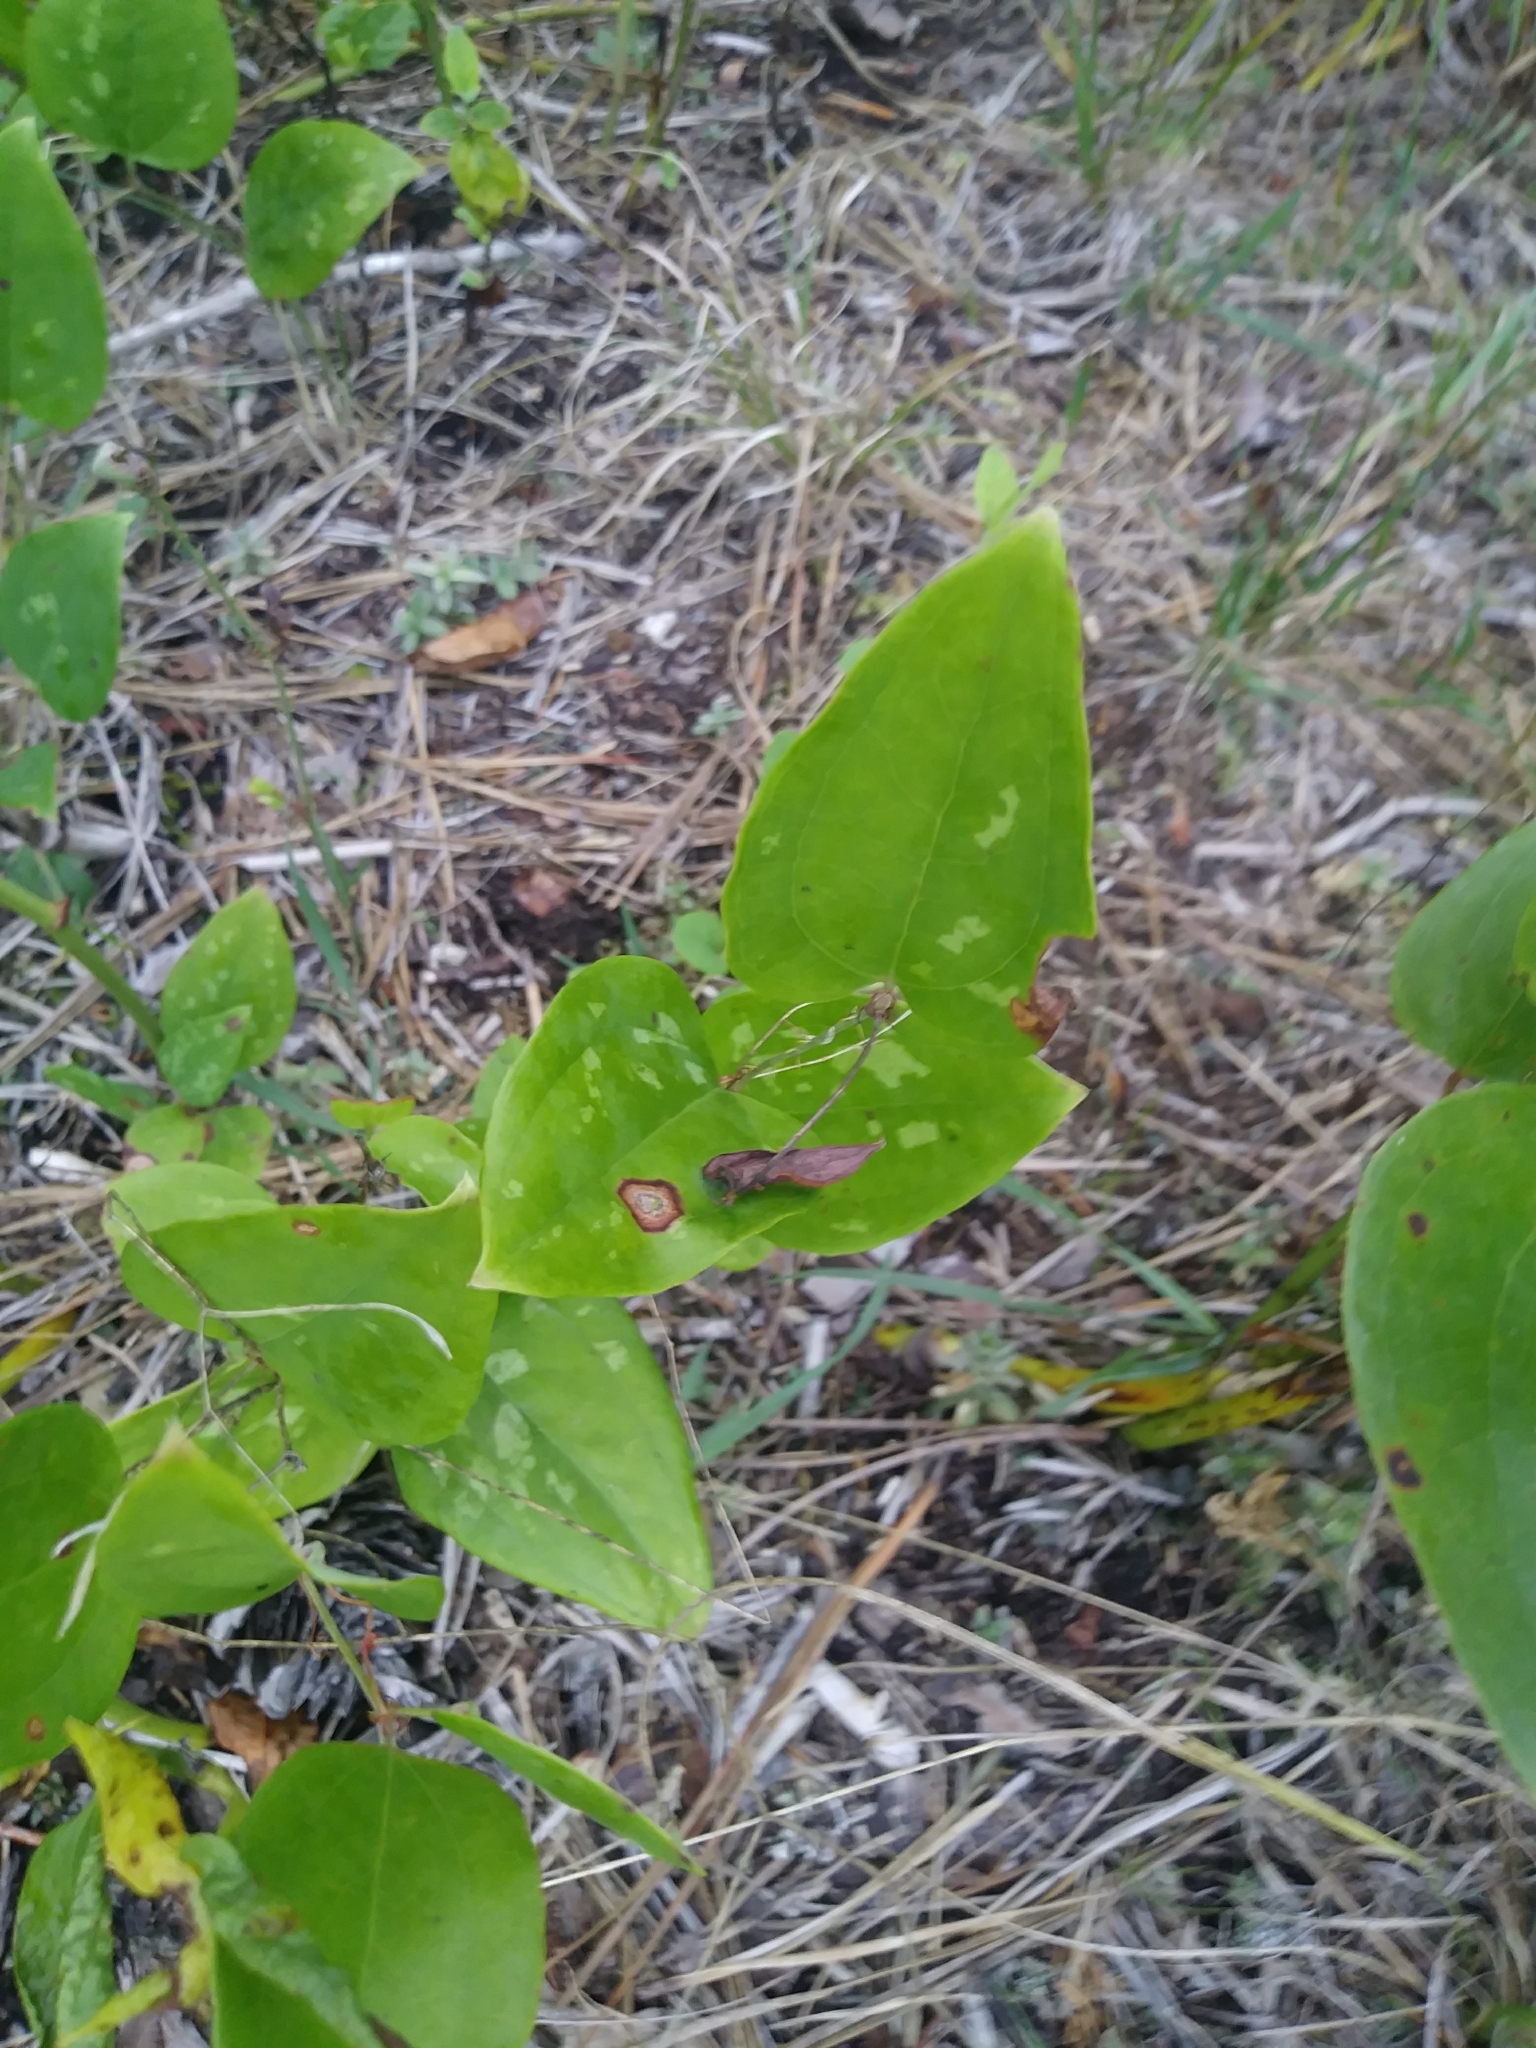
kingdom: Plantae
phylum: Tracheophyta
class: Liliopsida
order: Liliales
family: Smilacaceae
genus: Smilax
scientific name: Smilax glauca
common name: Cat greenbrier
